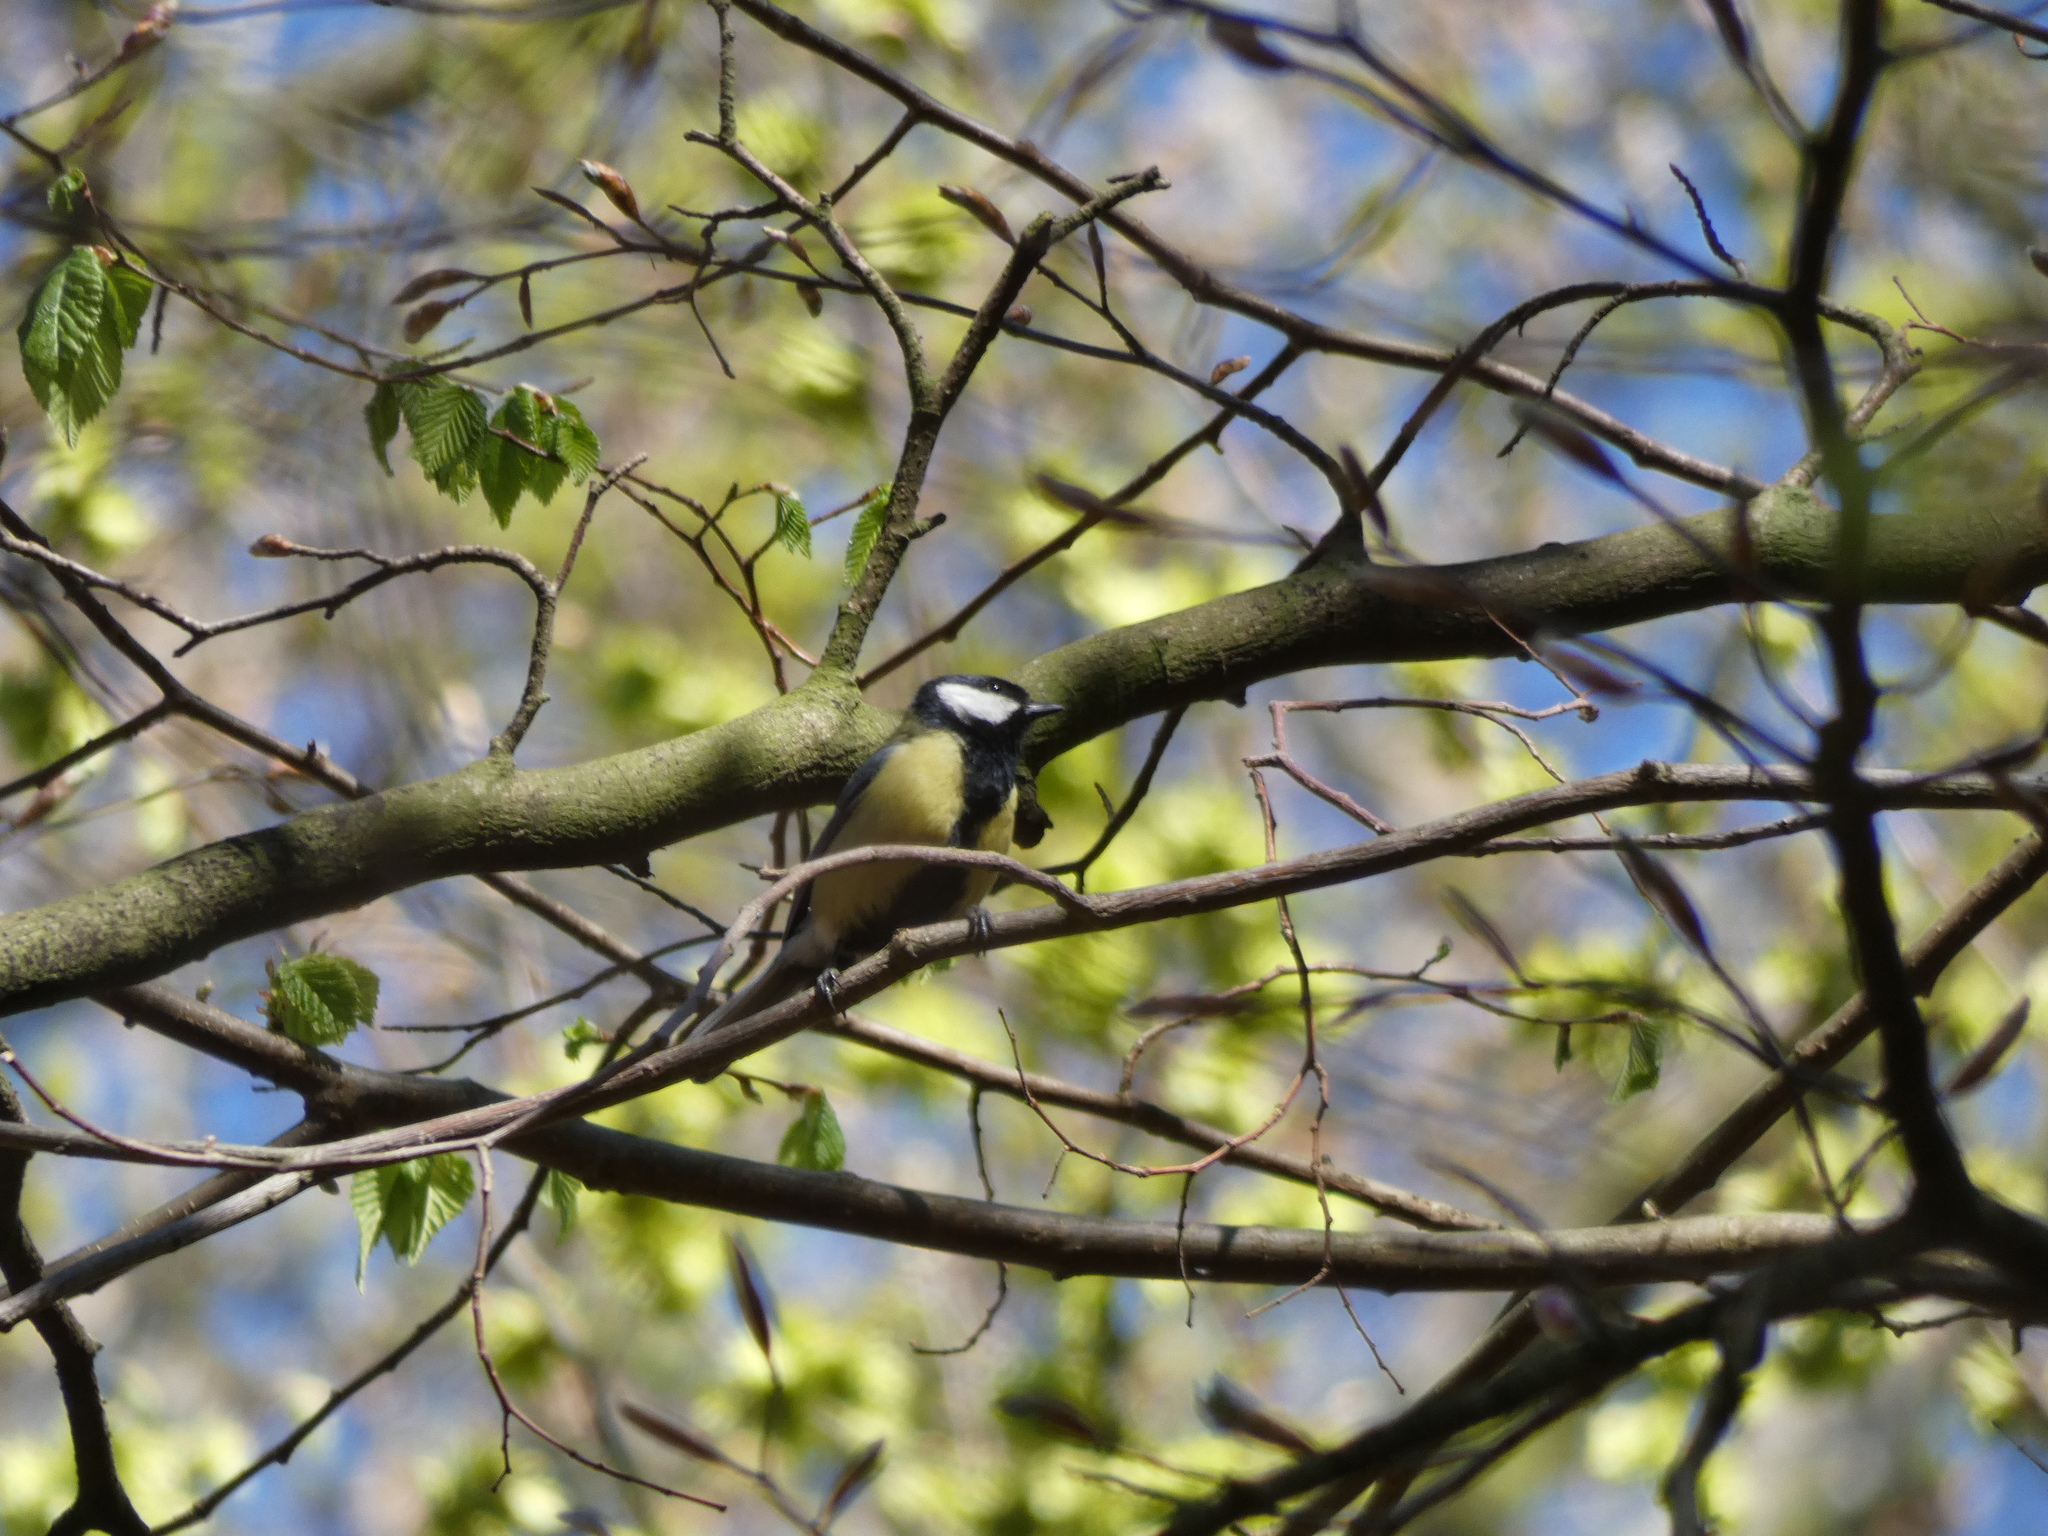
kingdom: Animalia
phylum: Chordata
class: Aves
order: Passeriformes
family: Paridae
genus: Parus
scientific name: Parus major
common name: Great tit
